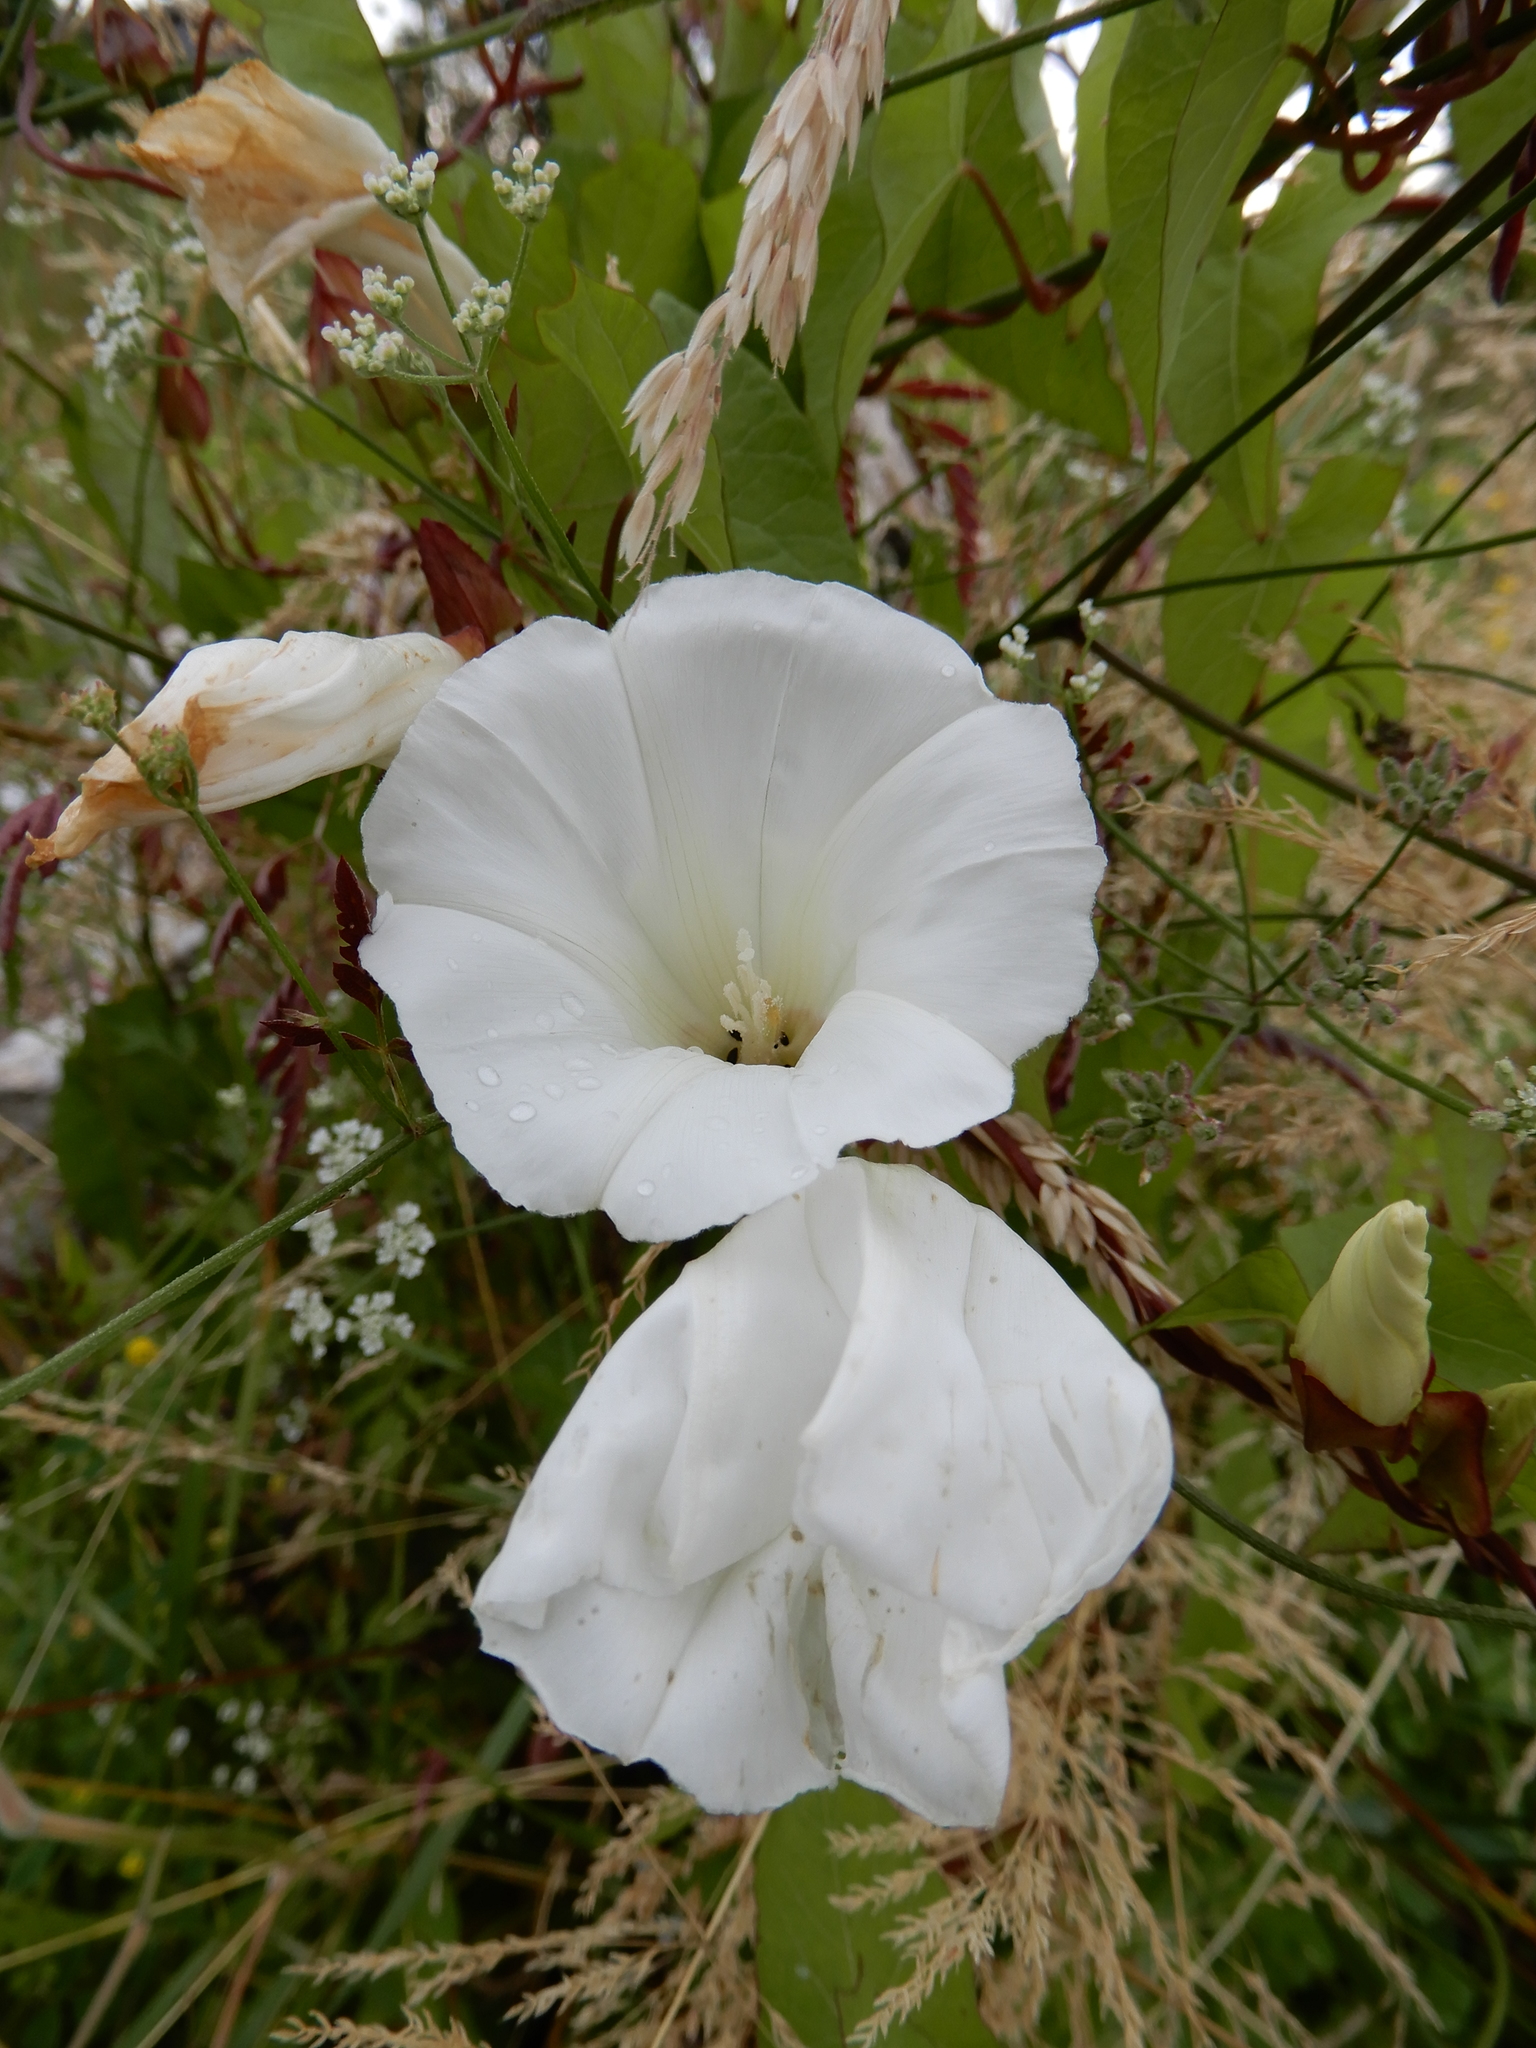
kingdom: Plantae
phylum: Tracheophyta
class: Magnoliopsida
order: Solanales
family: Convolvulaceae
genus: Calystegia
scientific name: Calystegia sepium
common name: Hedge bindweed
